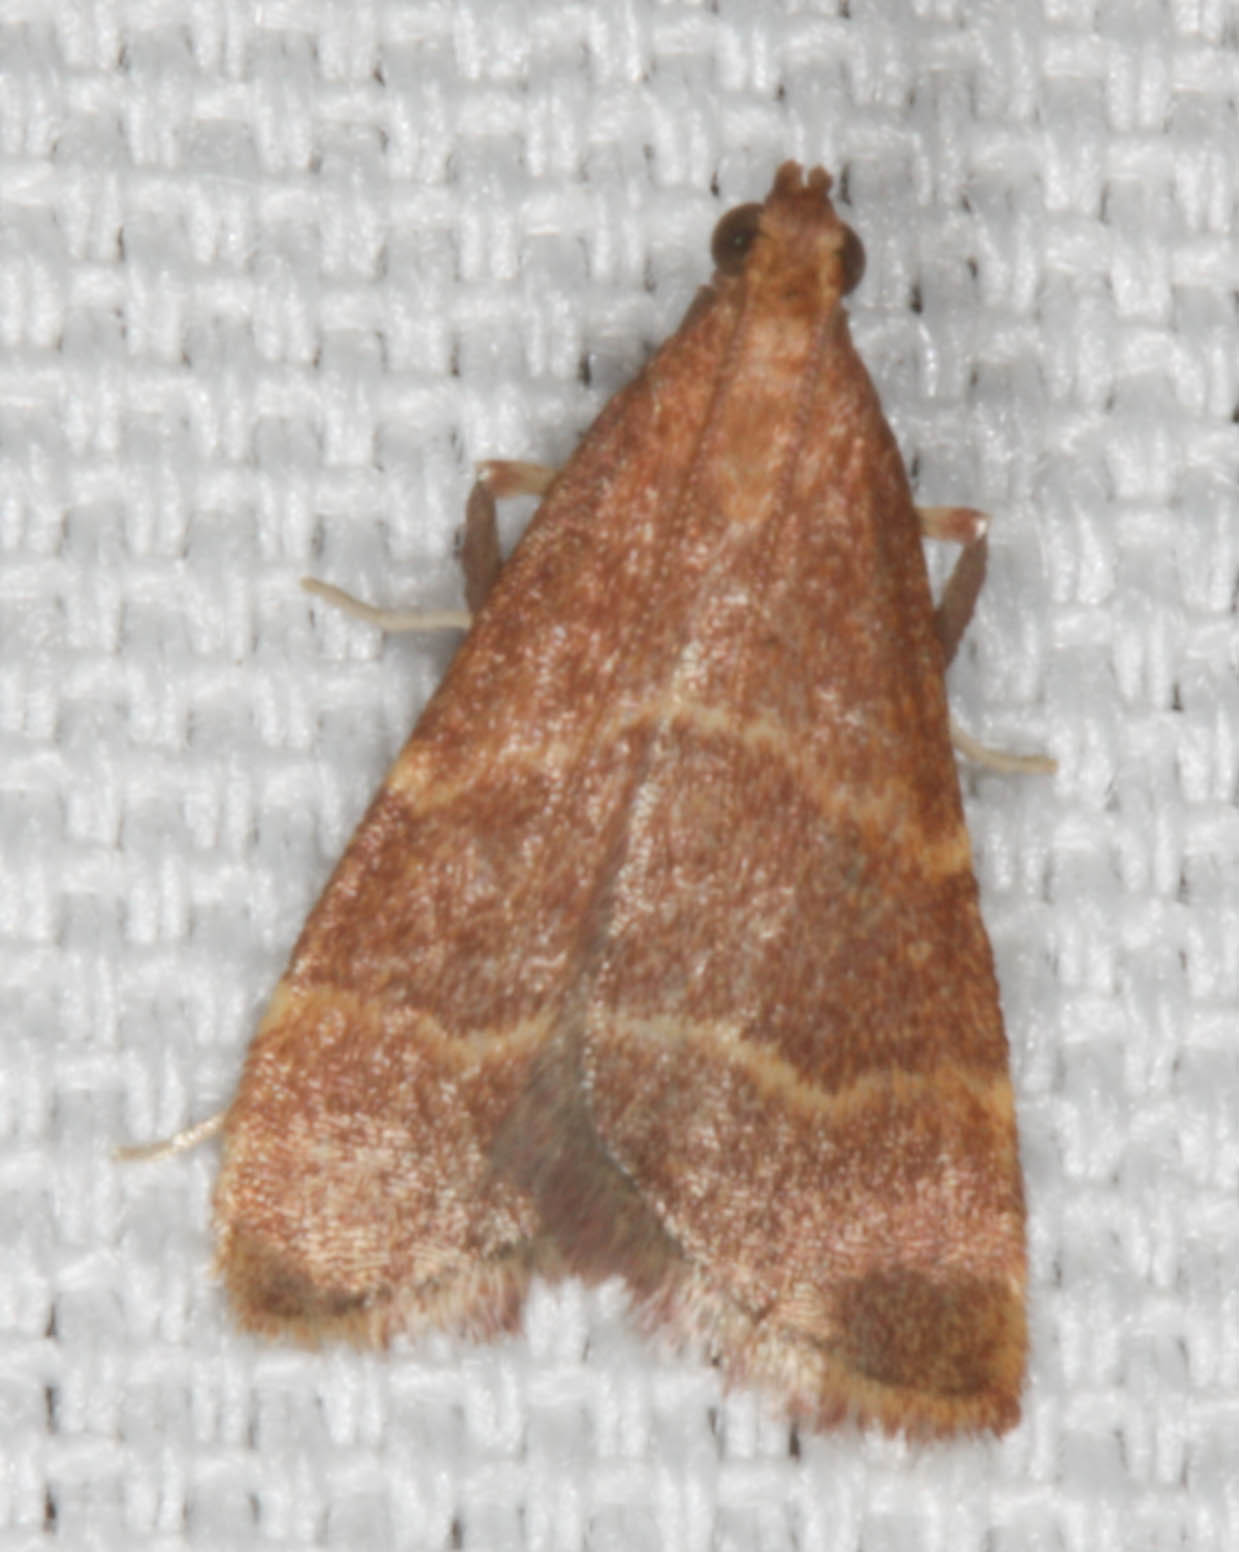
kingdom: Animalia
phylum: Arthropoda
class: Insecta
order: Lepidoptera
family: Pyralidae
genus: Arta
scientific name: Arta epicoenalis
